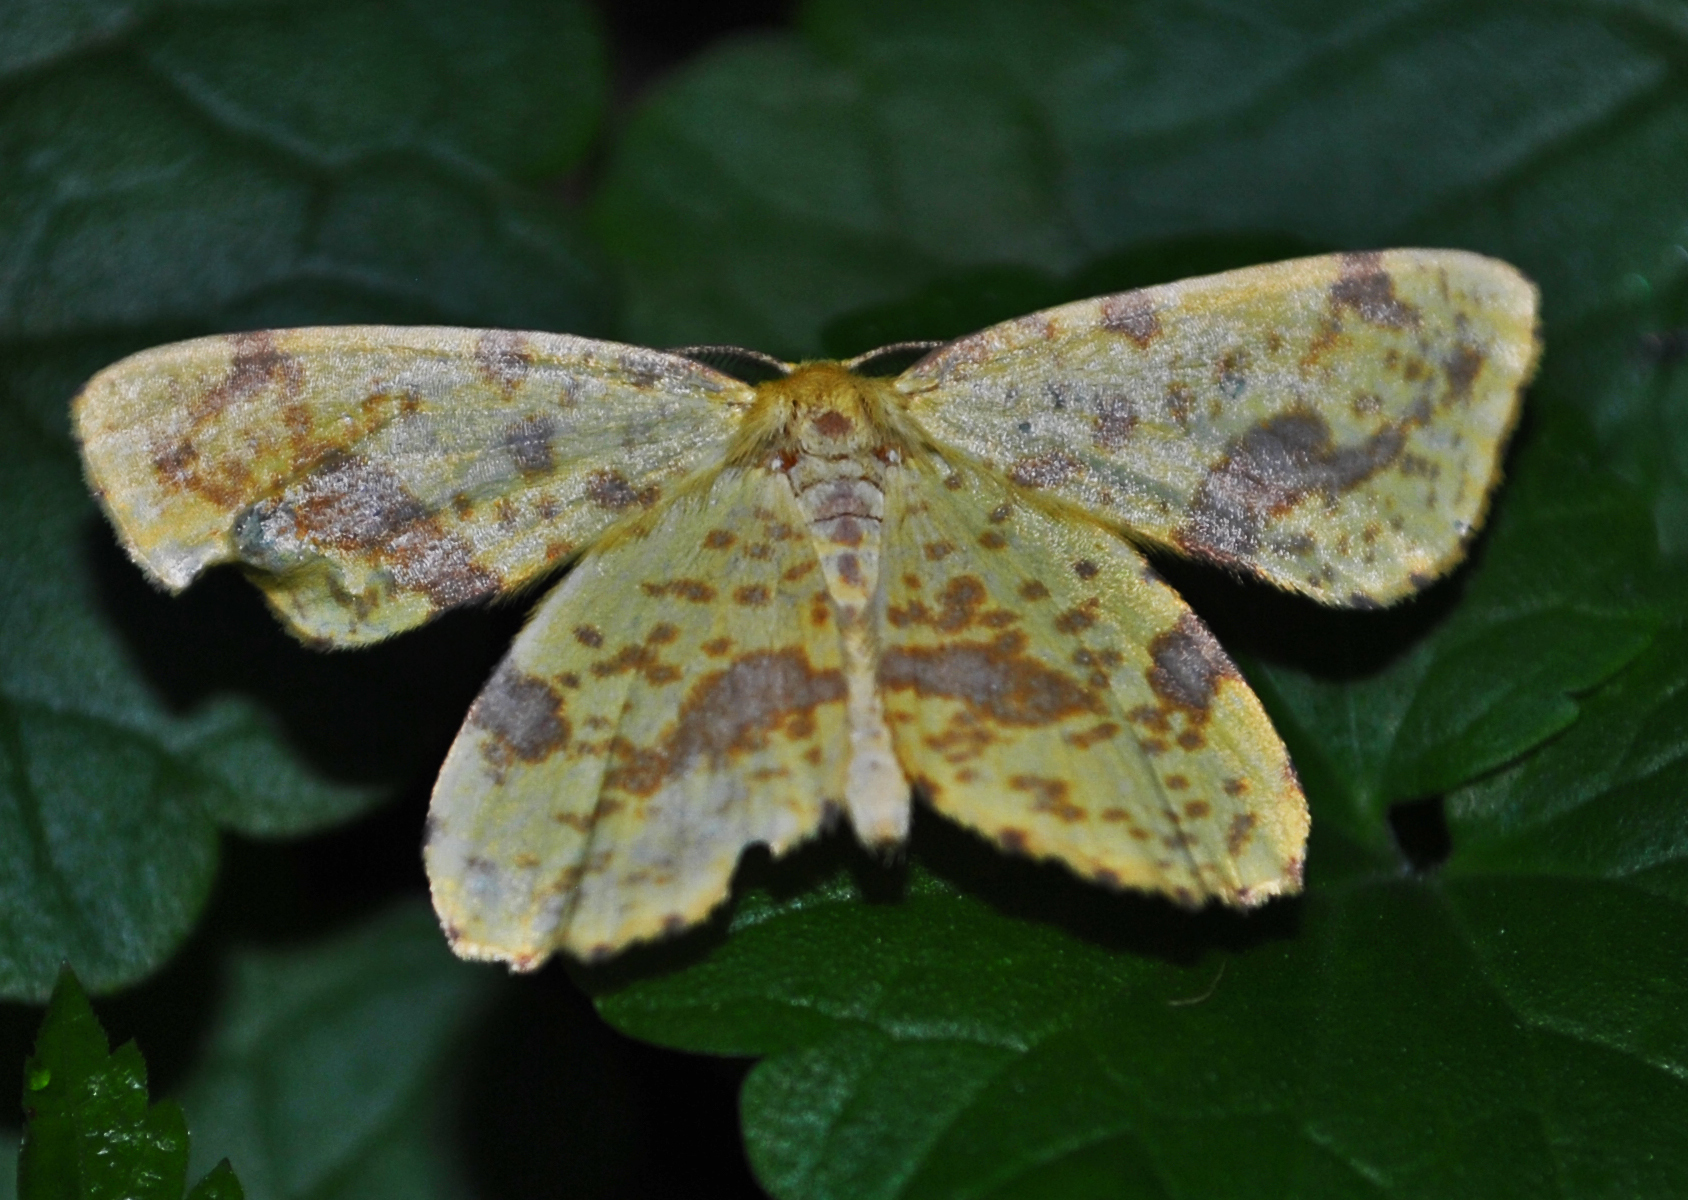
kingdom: Animalia
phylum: Arthropoda
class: Insecta
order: Lepidoptera
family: Geometridae
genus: Xanthotype
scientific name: Xanthotype
